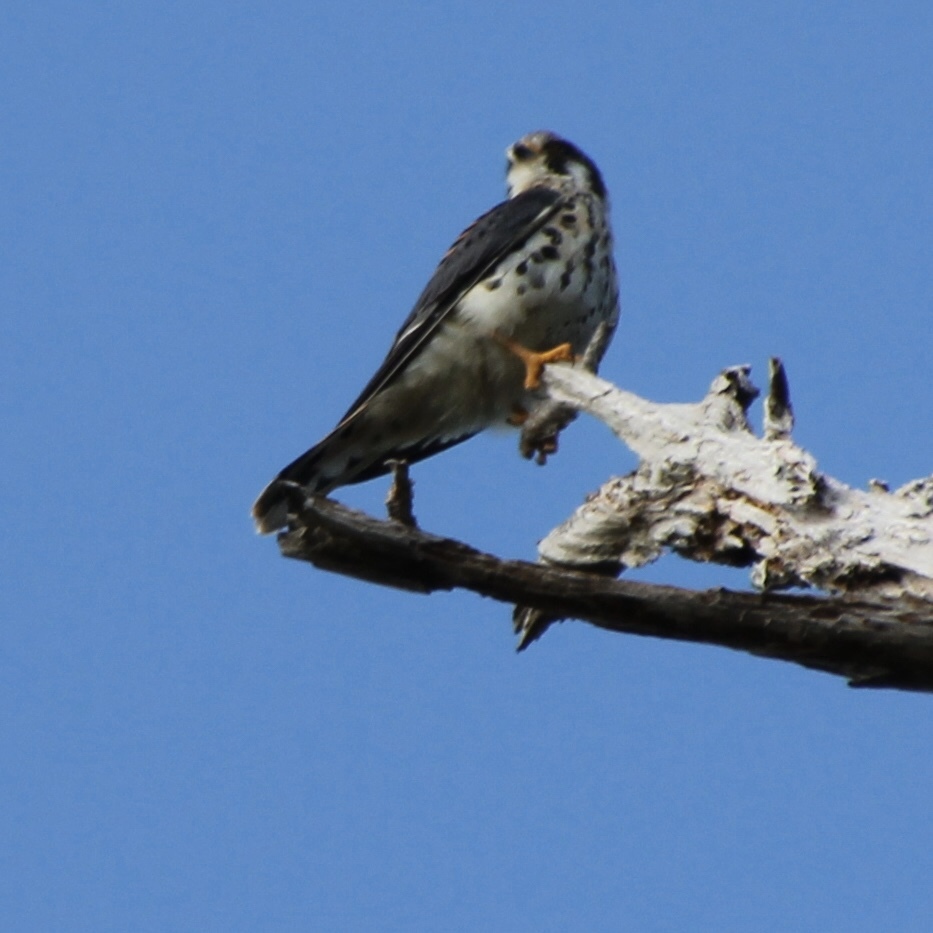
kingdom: Animalia
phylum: Chordata
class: Aves
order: Falconiformes
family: Falconidae
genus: Falco
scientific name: Falco sparverius
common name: American kestrel
